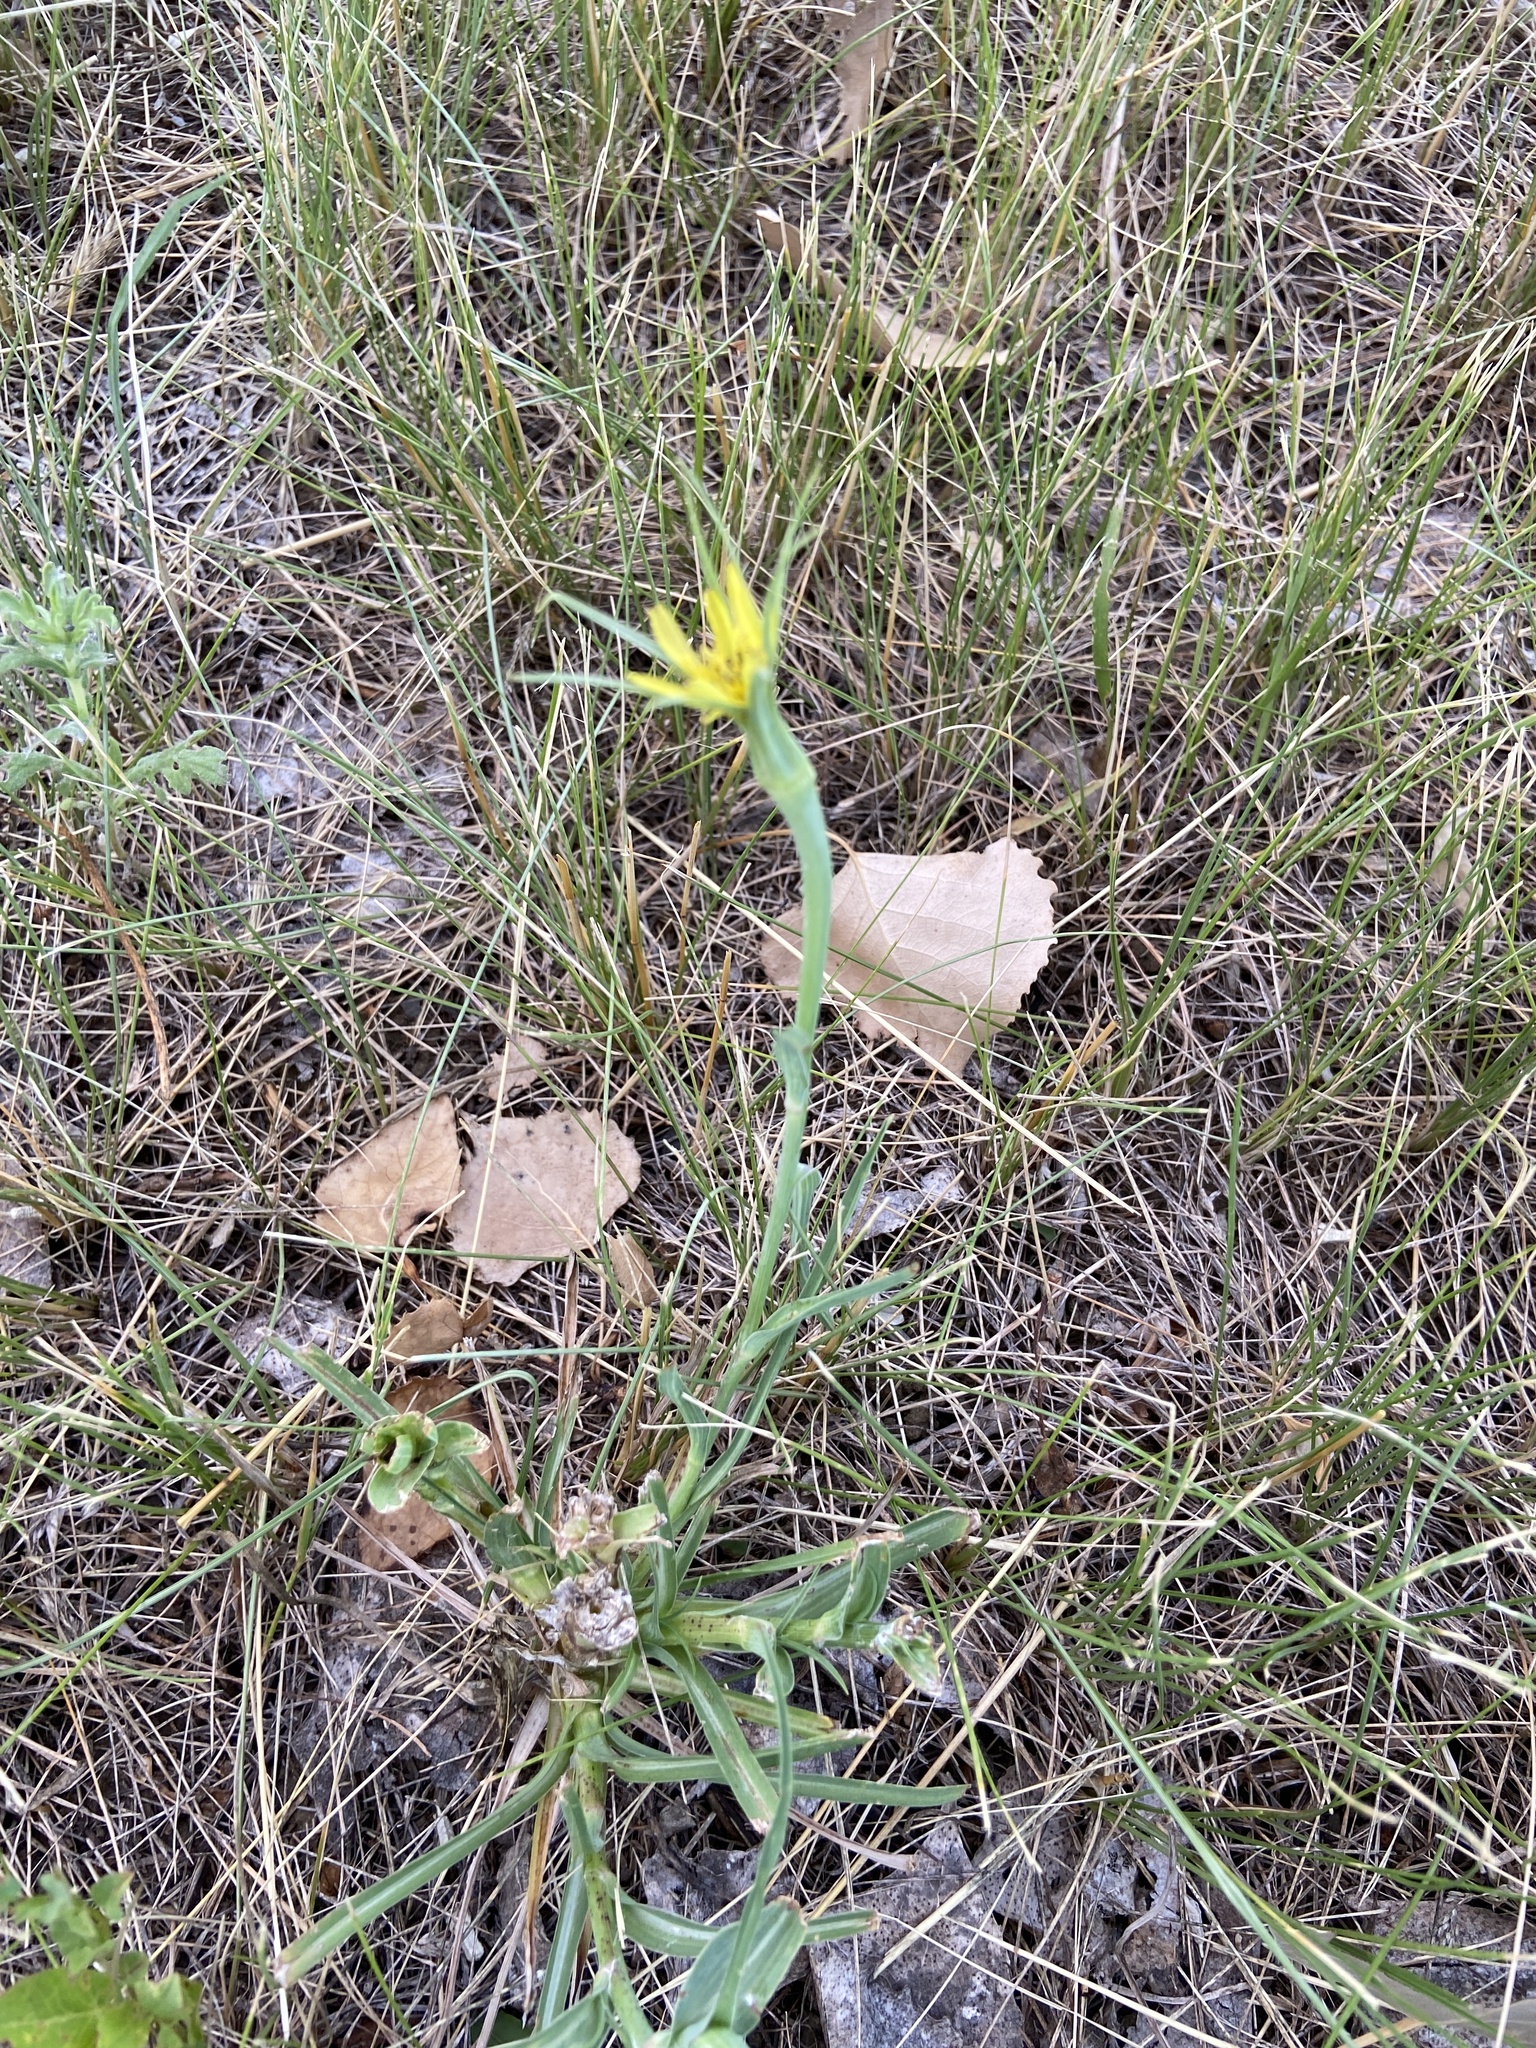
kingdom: Plantae
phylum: Tracheophyta
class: Magnoliopsida
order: Asterales
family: Asteraceae
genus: Tragopogon
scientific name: Tragopogon dubius
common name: Yellow salsify
